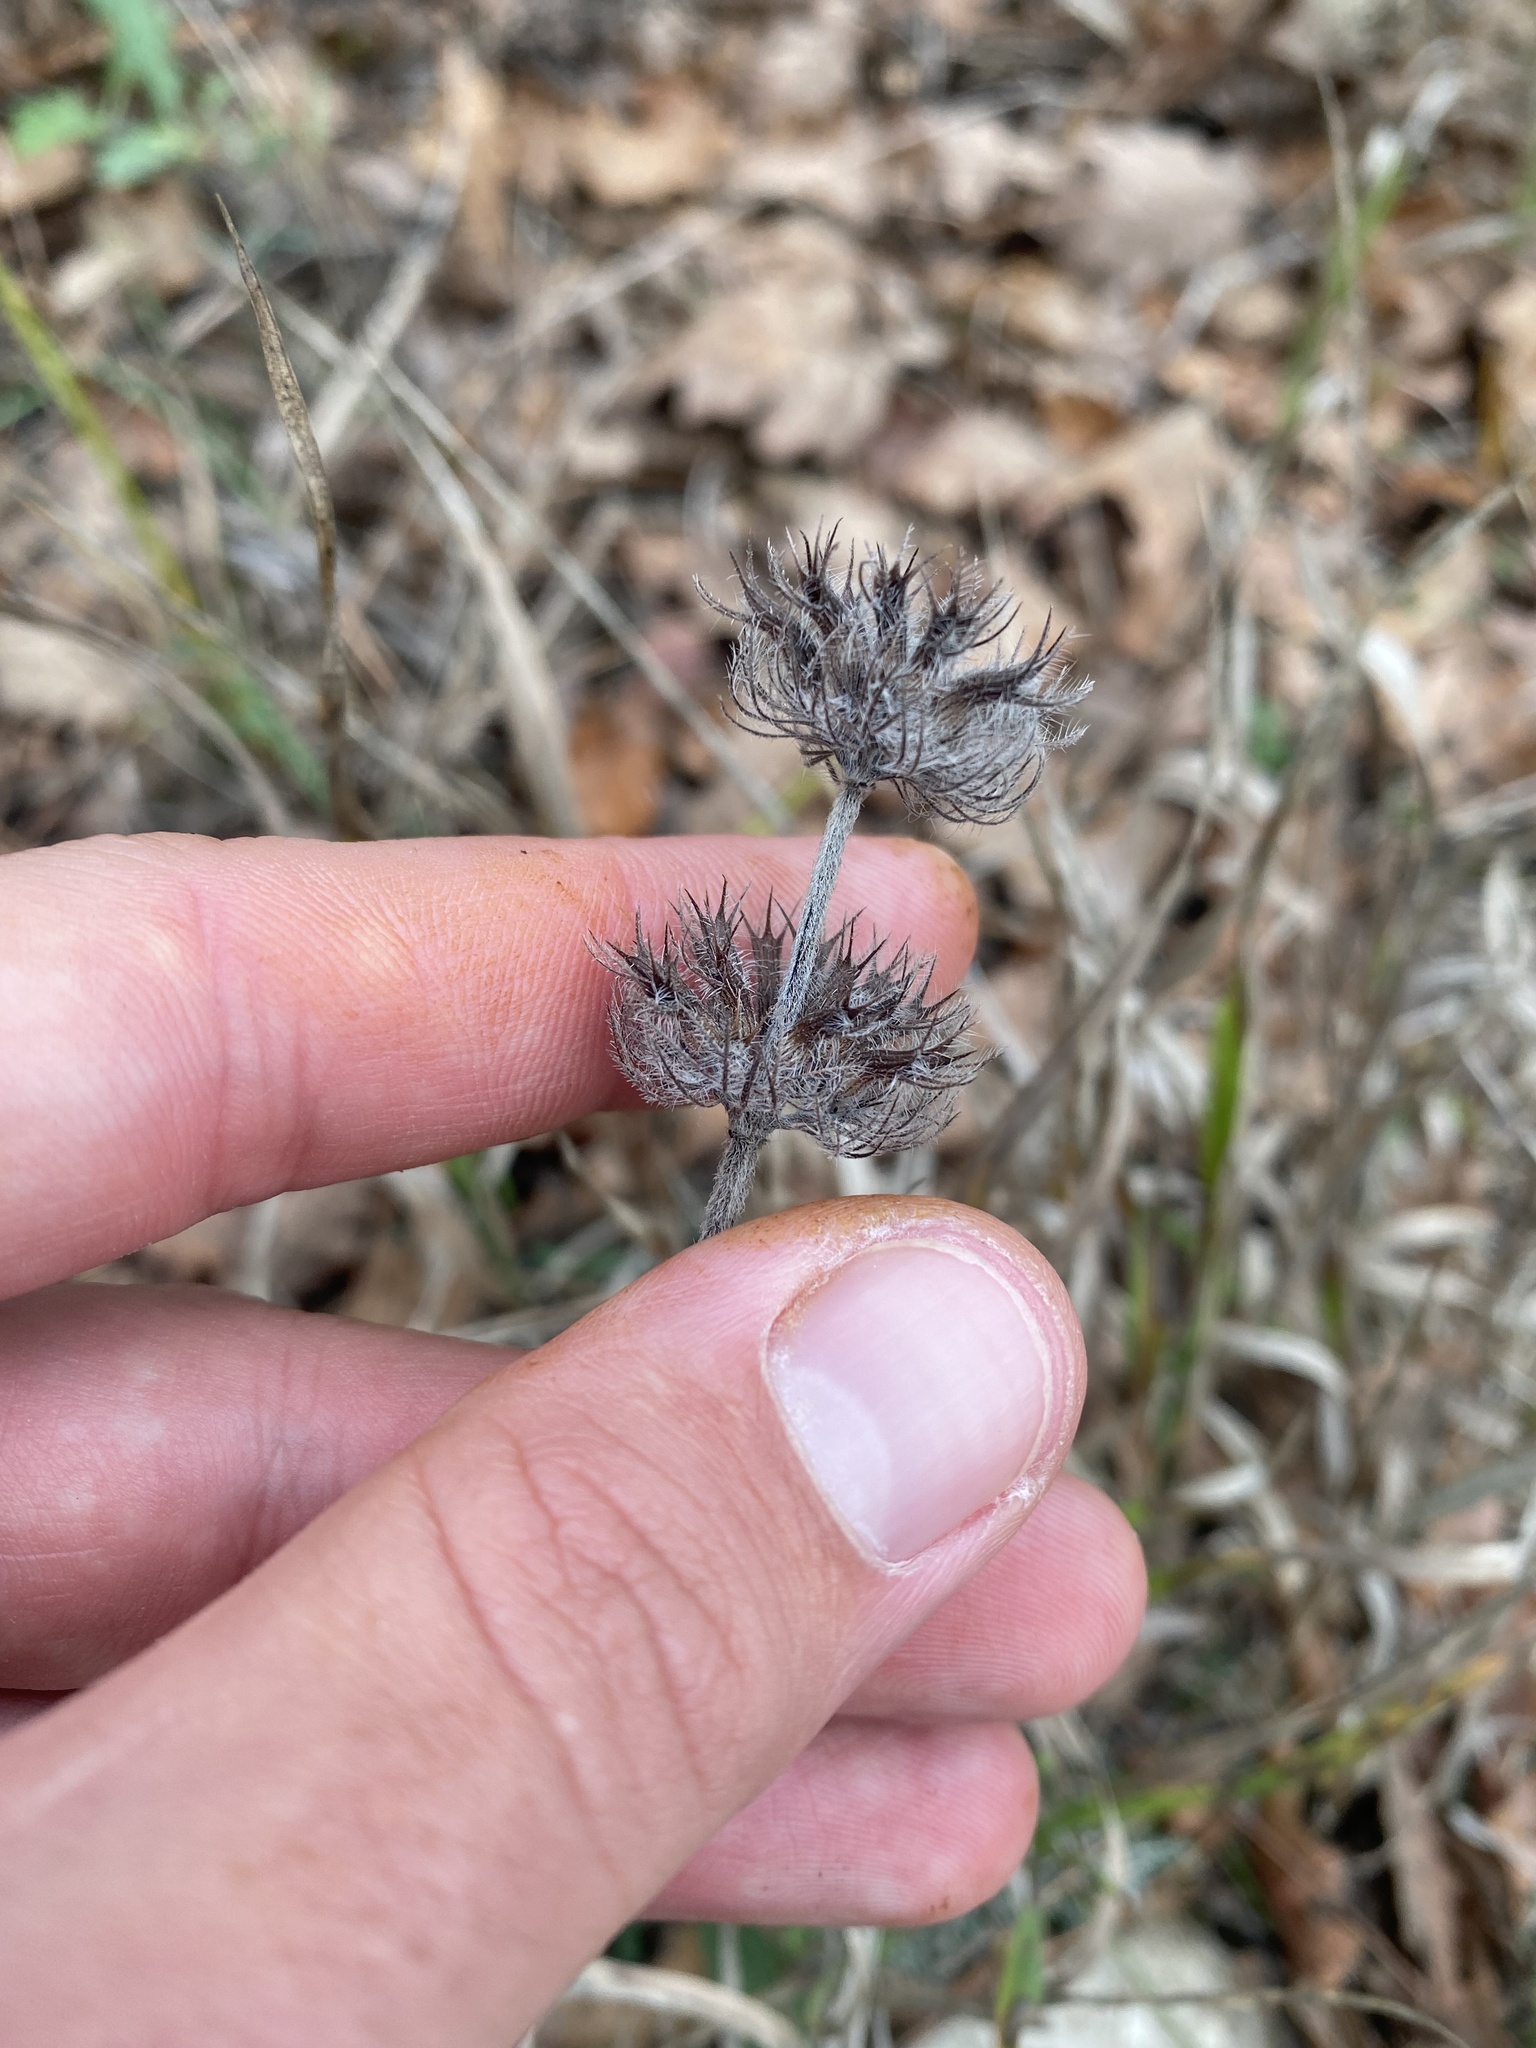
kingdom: Plantae
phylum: Tracheophyta
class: Magnoliopsida
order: Lamiales
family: Lamiaceae
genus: Clinopodium
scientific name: Clinopodium caucasicum
